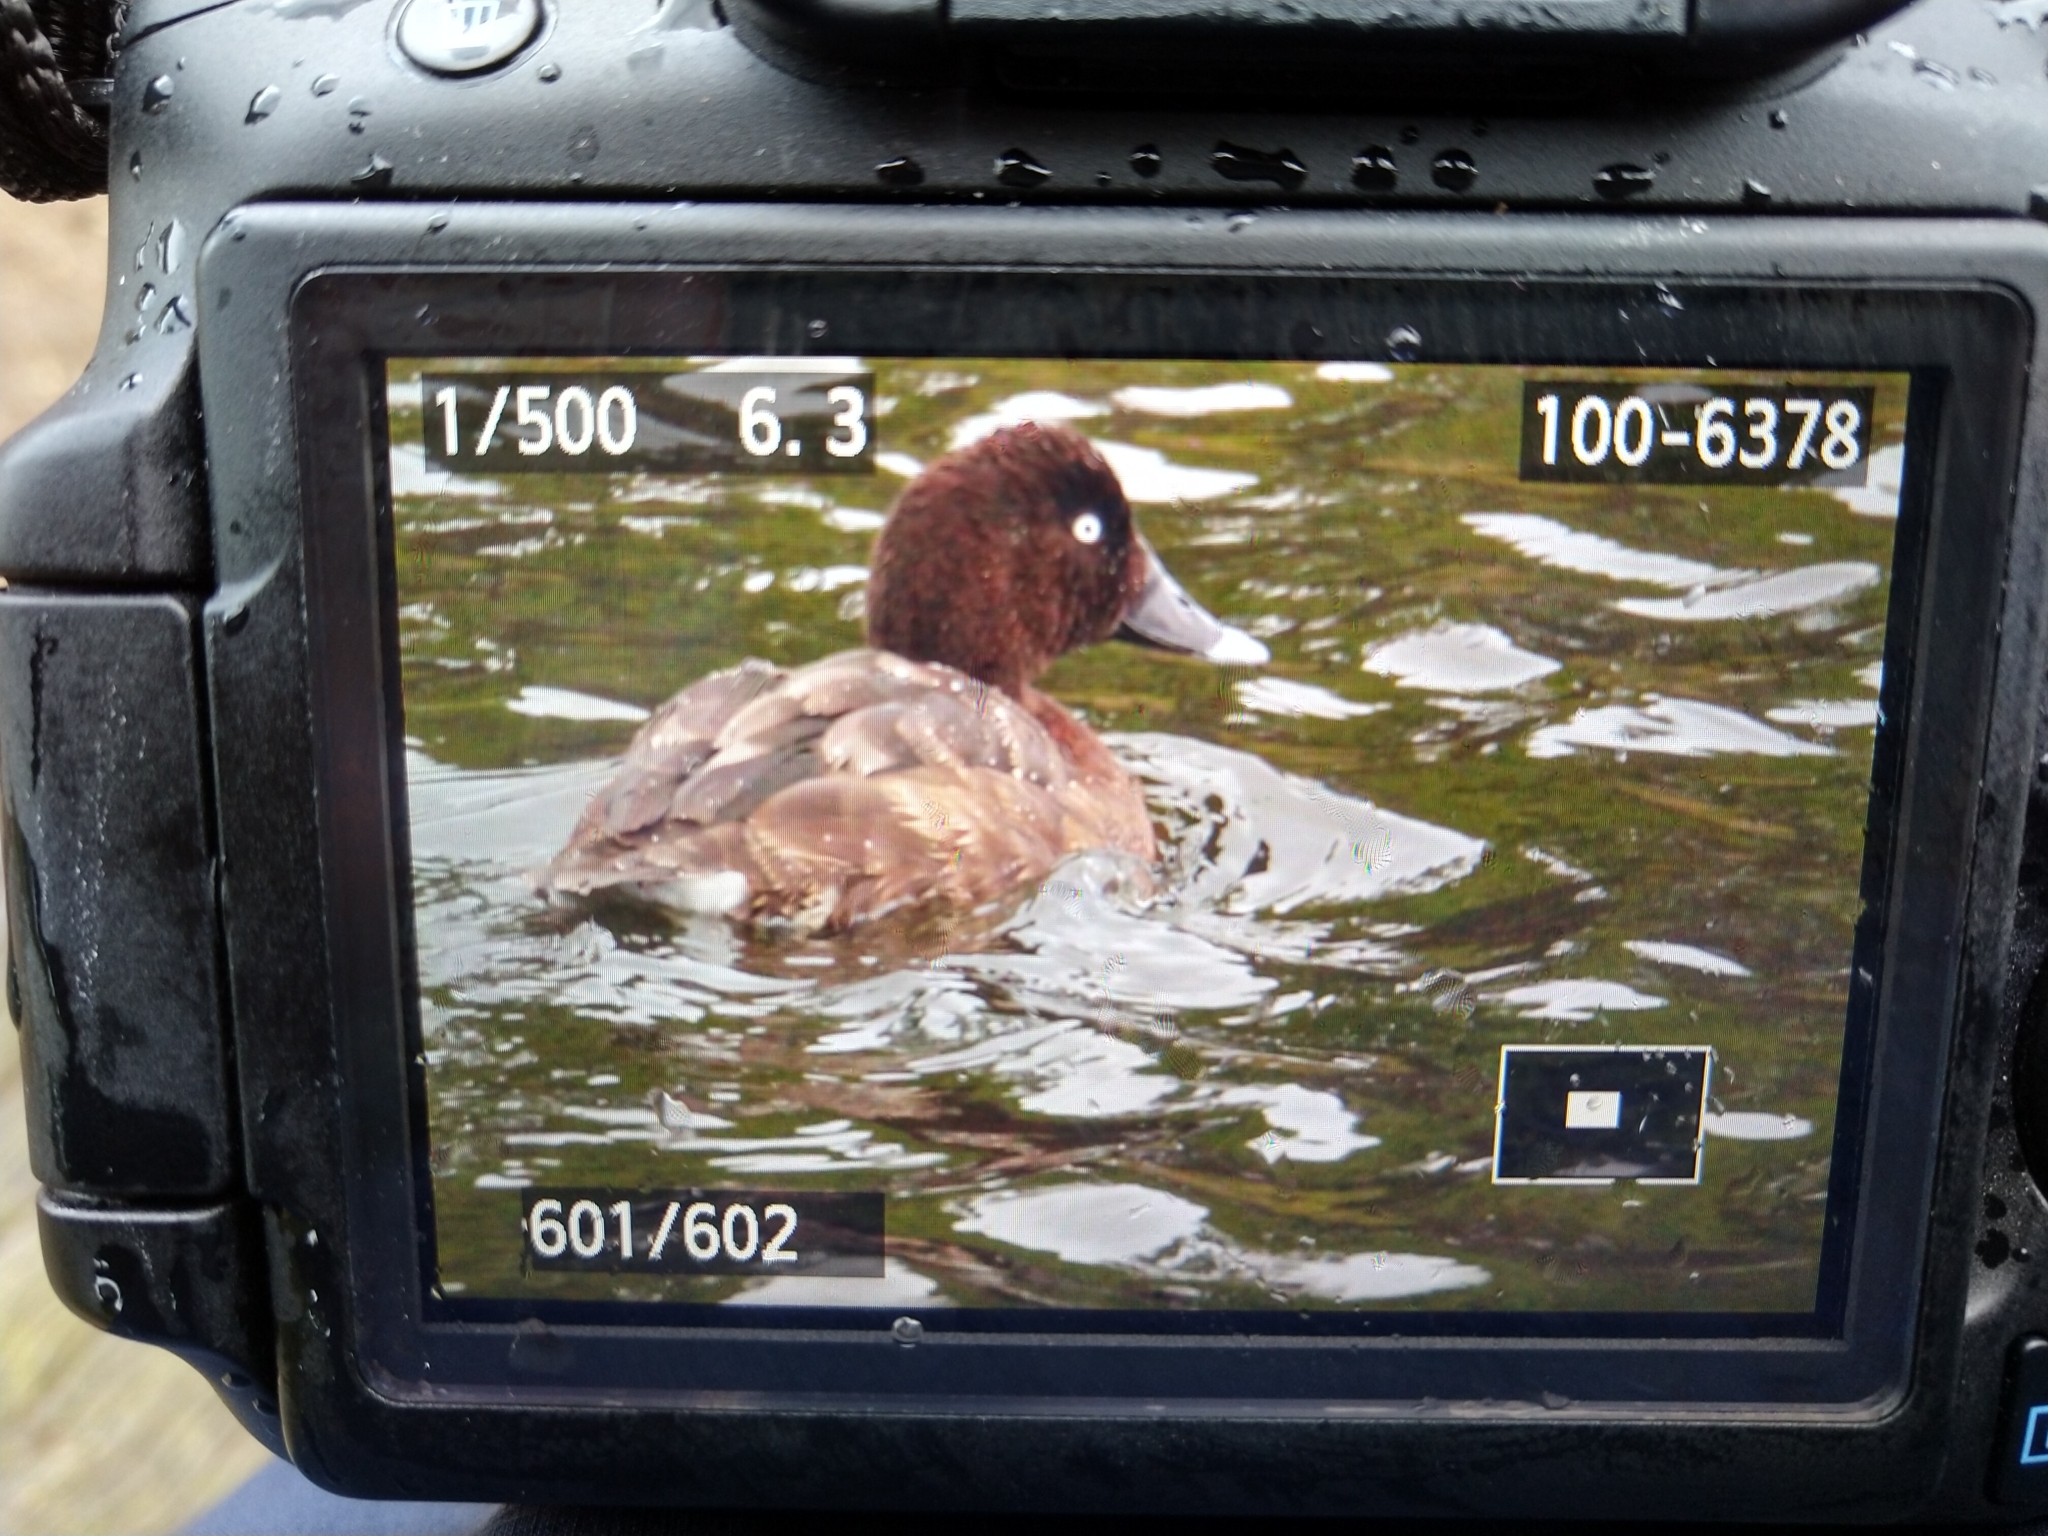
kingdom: Animalia
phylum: Chordata
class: Aves
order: Anseriformes
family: Anatidae
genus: Aythya
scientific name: Aythya australis
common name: Hardhead
